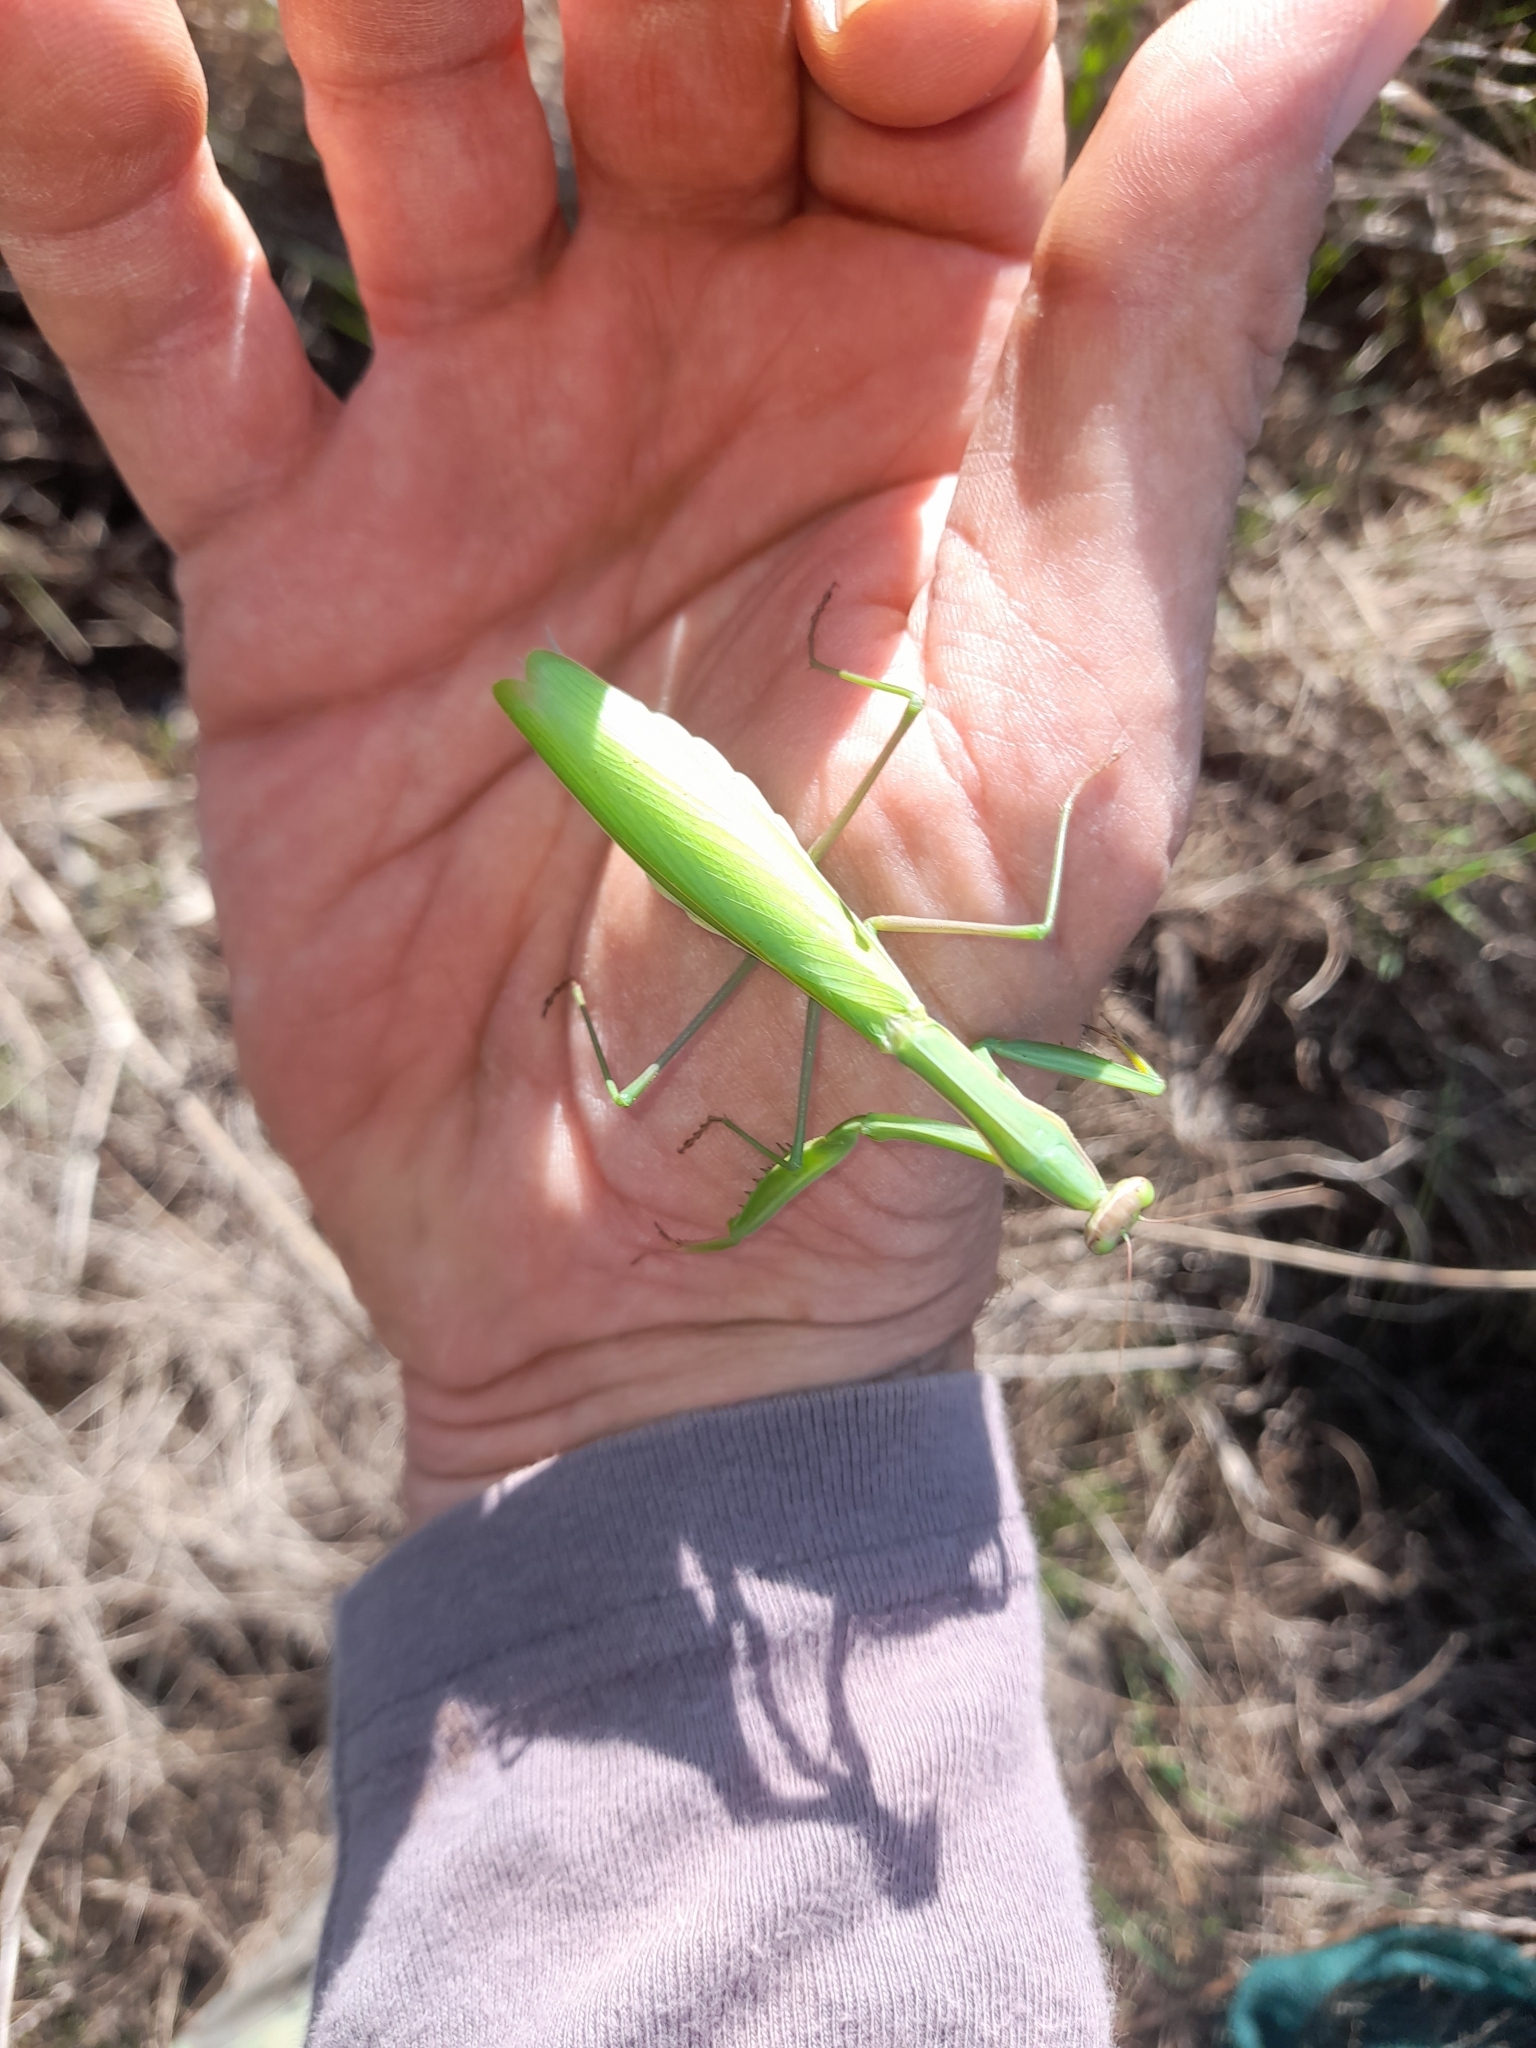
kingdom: Animalia
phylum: Arthropoda
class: Insecta
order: Mantodea
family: Mantidae
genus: Mantis
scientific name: Mantis religiosa
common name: Praying mantis
